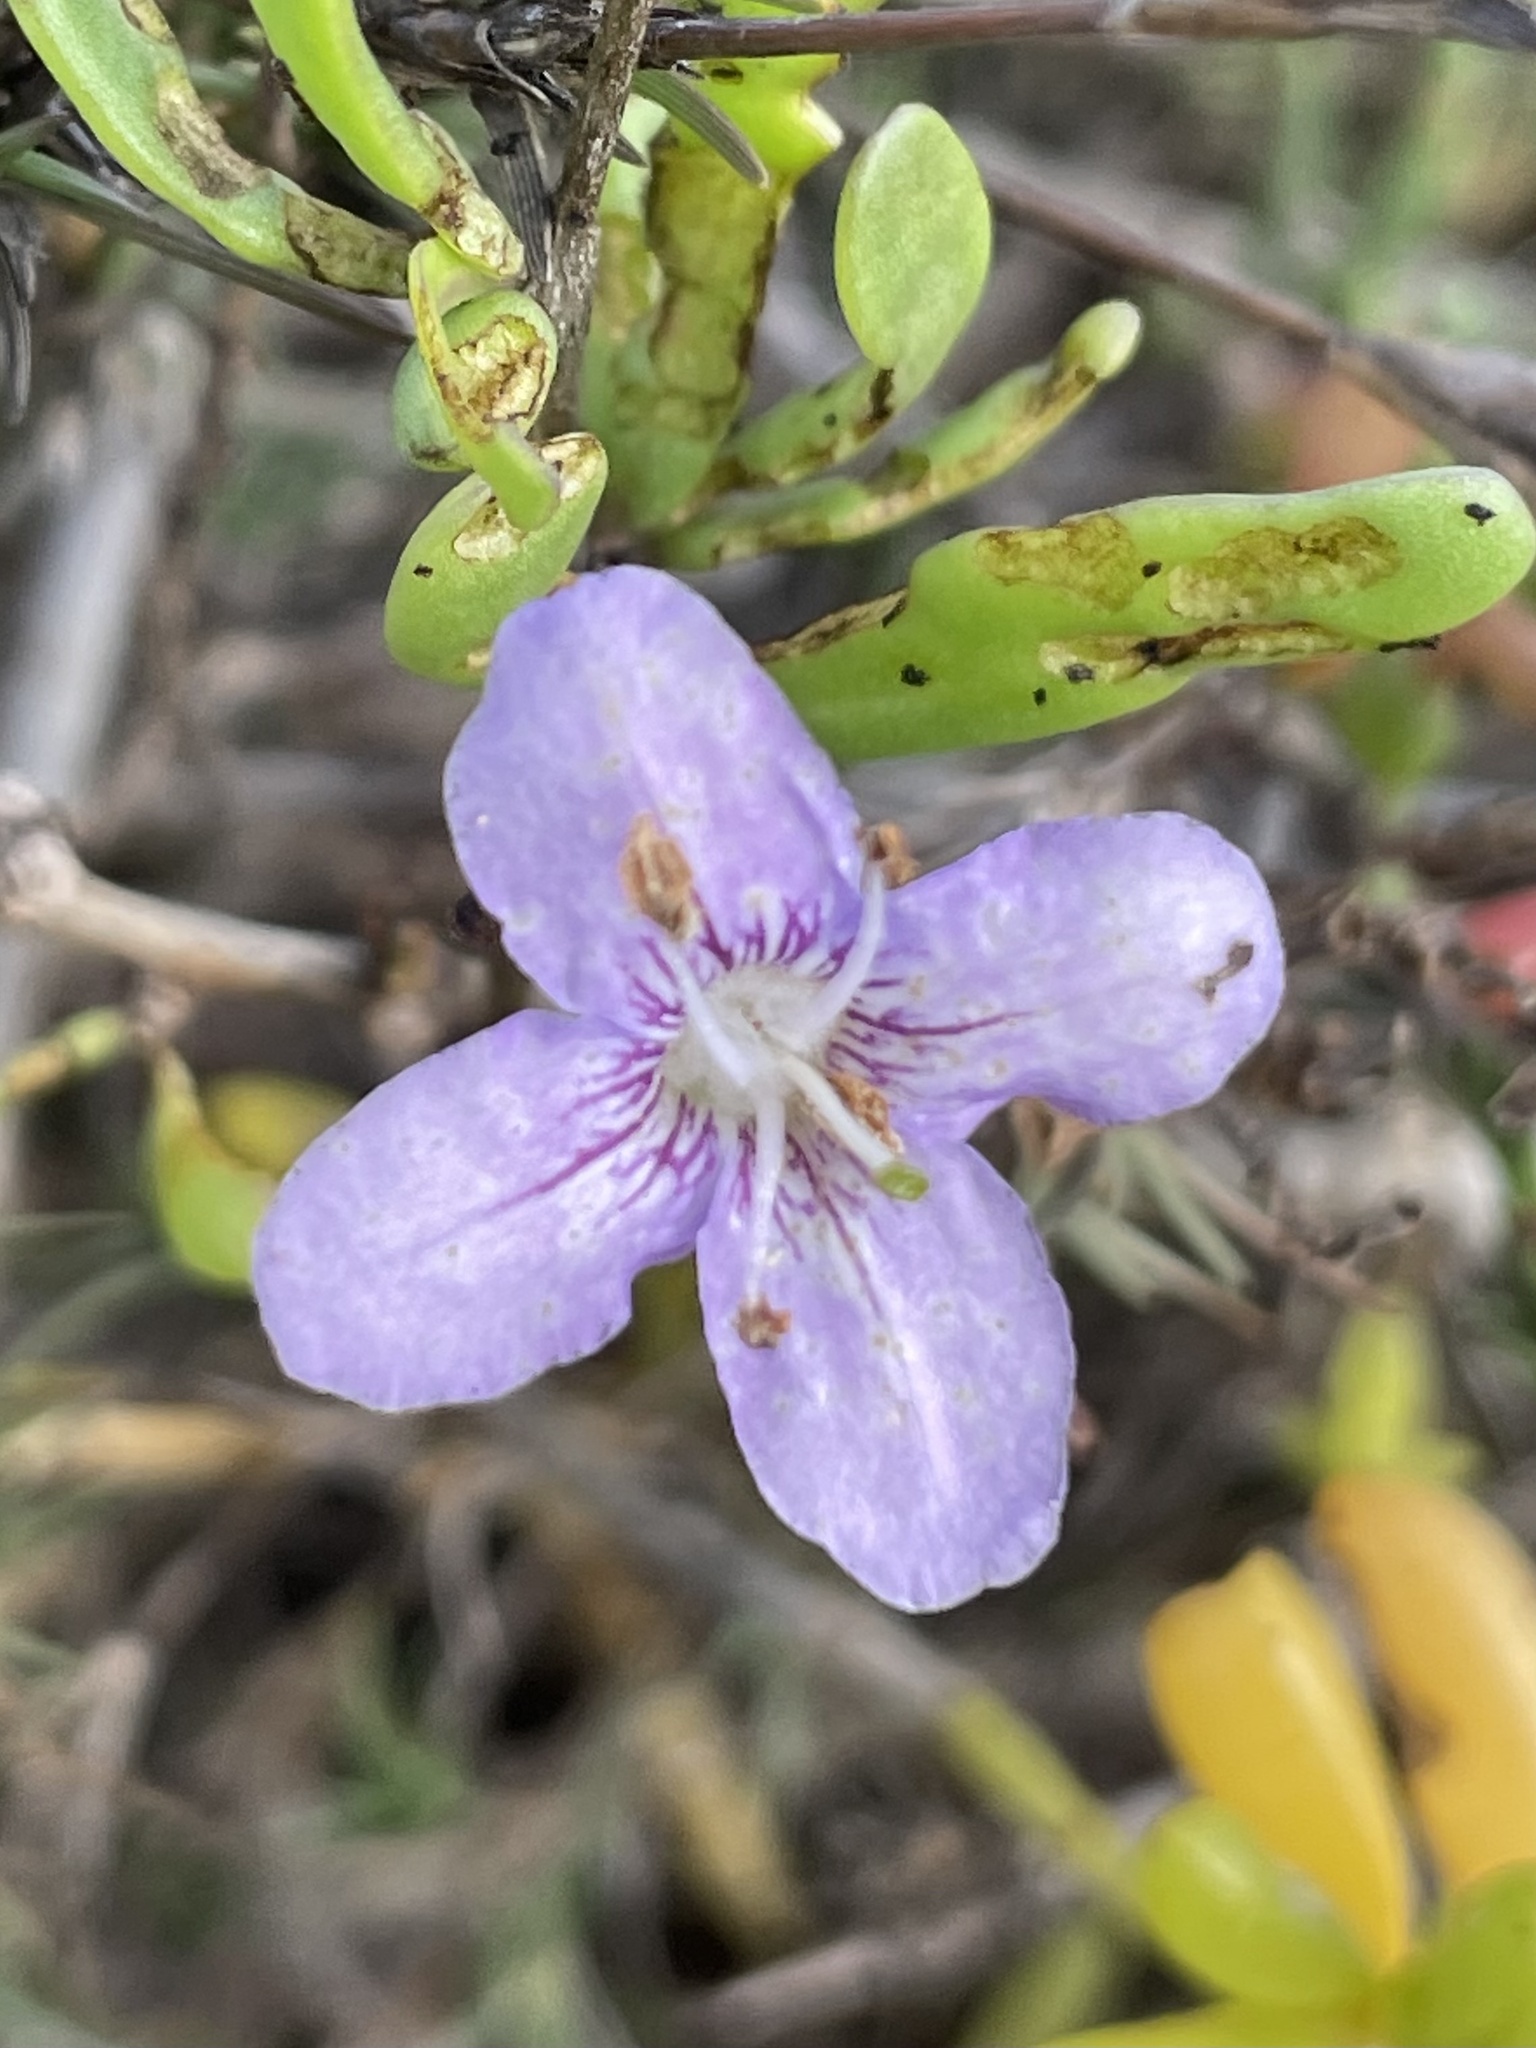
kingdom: Plantae
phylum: Tracheophyta
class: Magnoliopsida
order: Solanales
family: Solanaceae
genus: Lycium
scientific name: Lycium carolinianum
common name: Christmasberry
